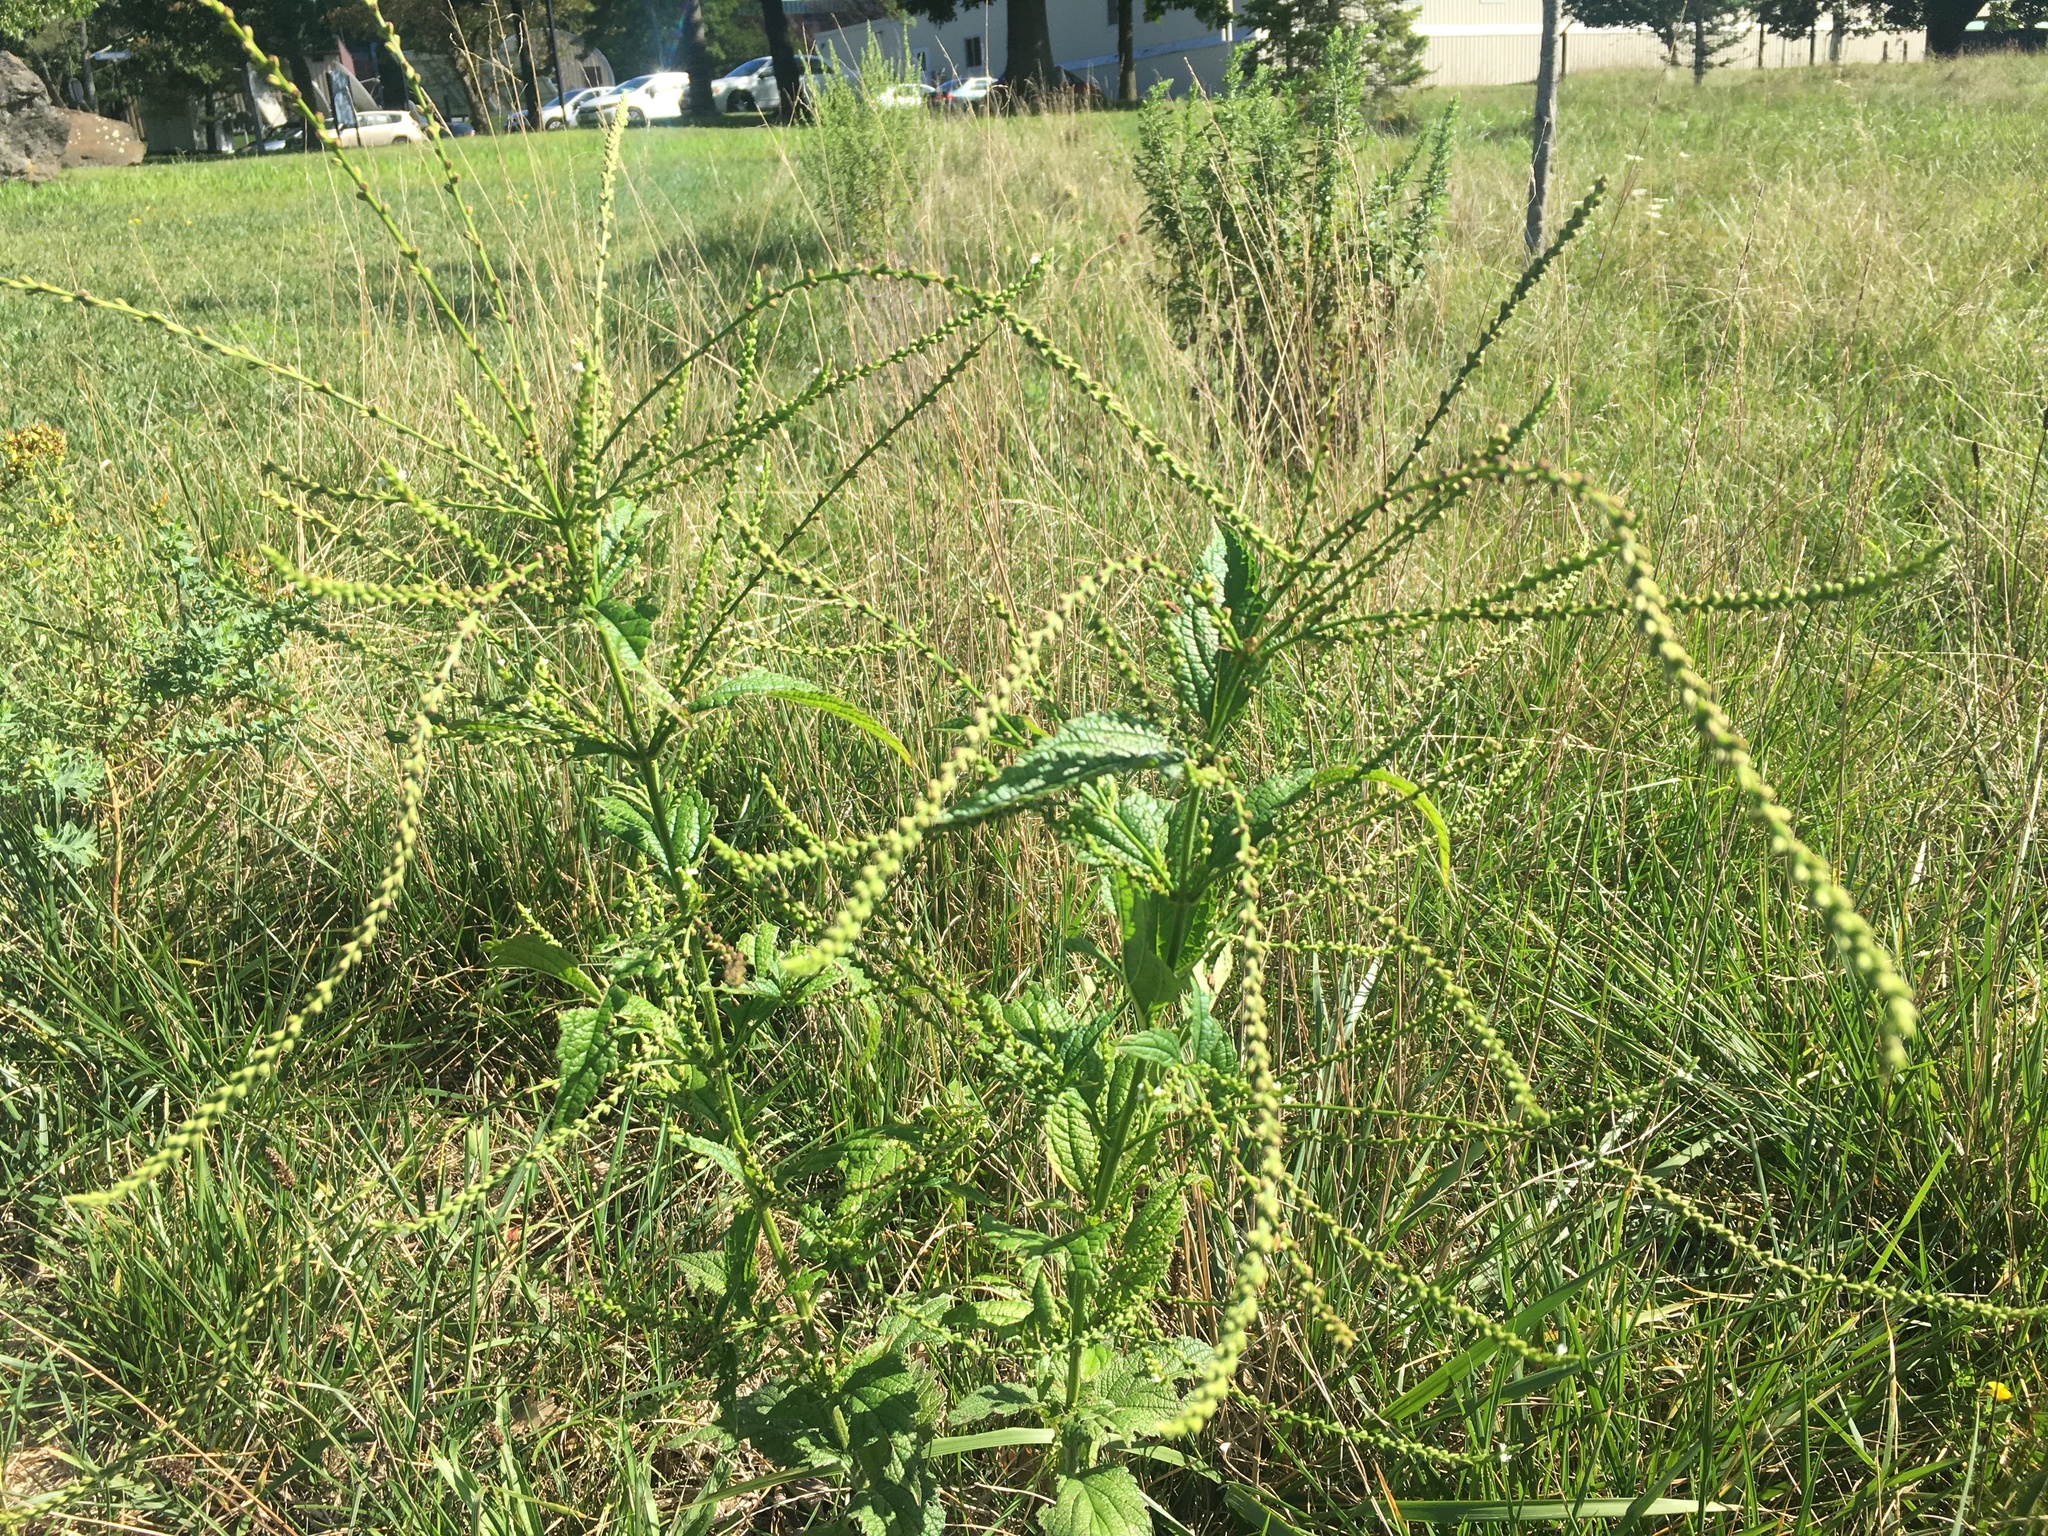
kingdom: Plantae
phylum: Tracheophyta
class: Magnoliopsida
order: Lamiales
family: Verbenaceae
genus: Verbena
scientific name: Verbena urticifolia
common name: Nettle-leaved vervain
